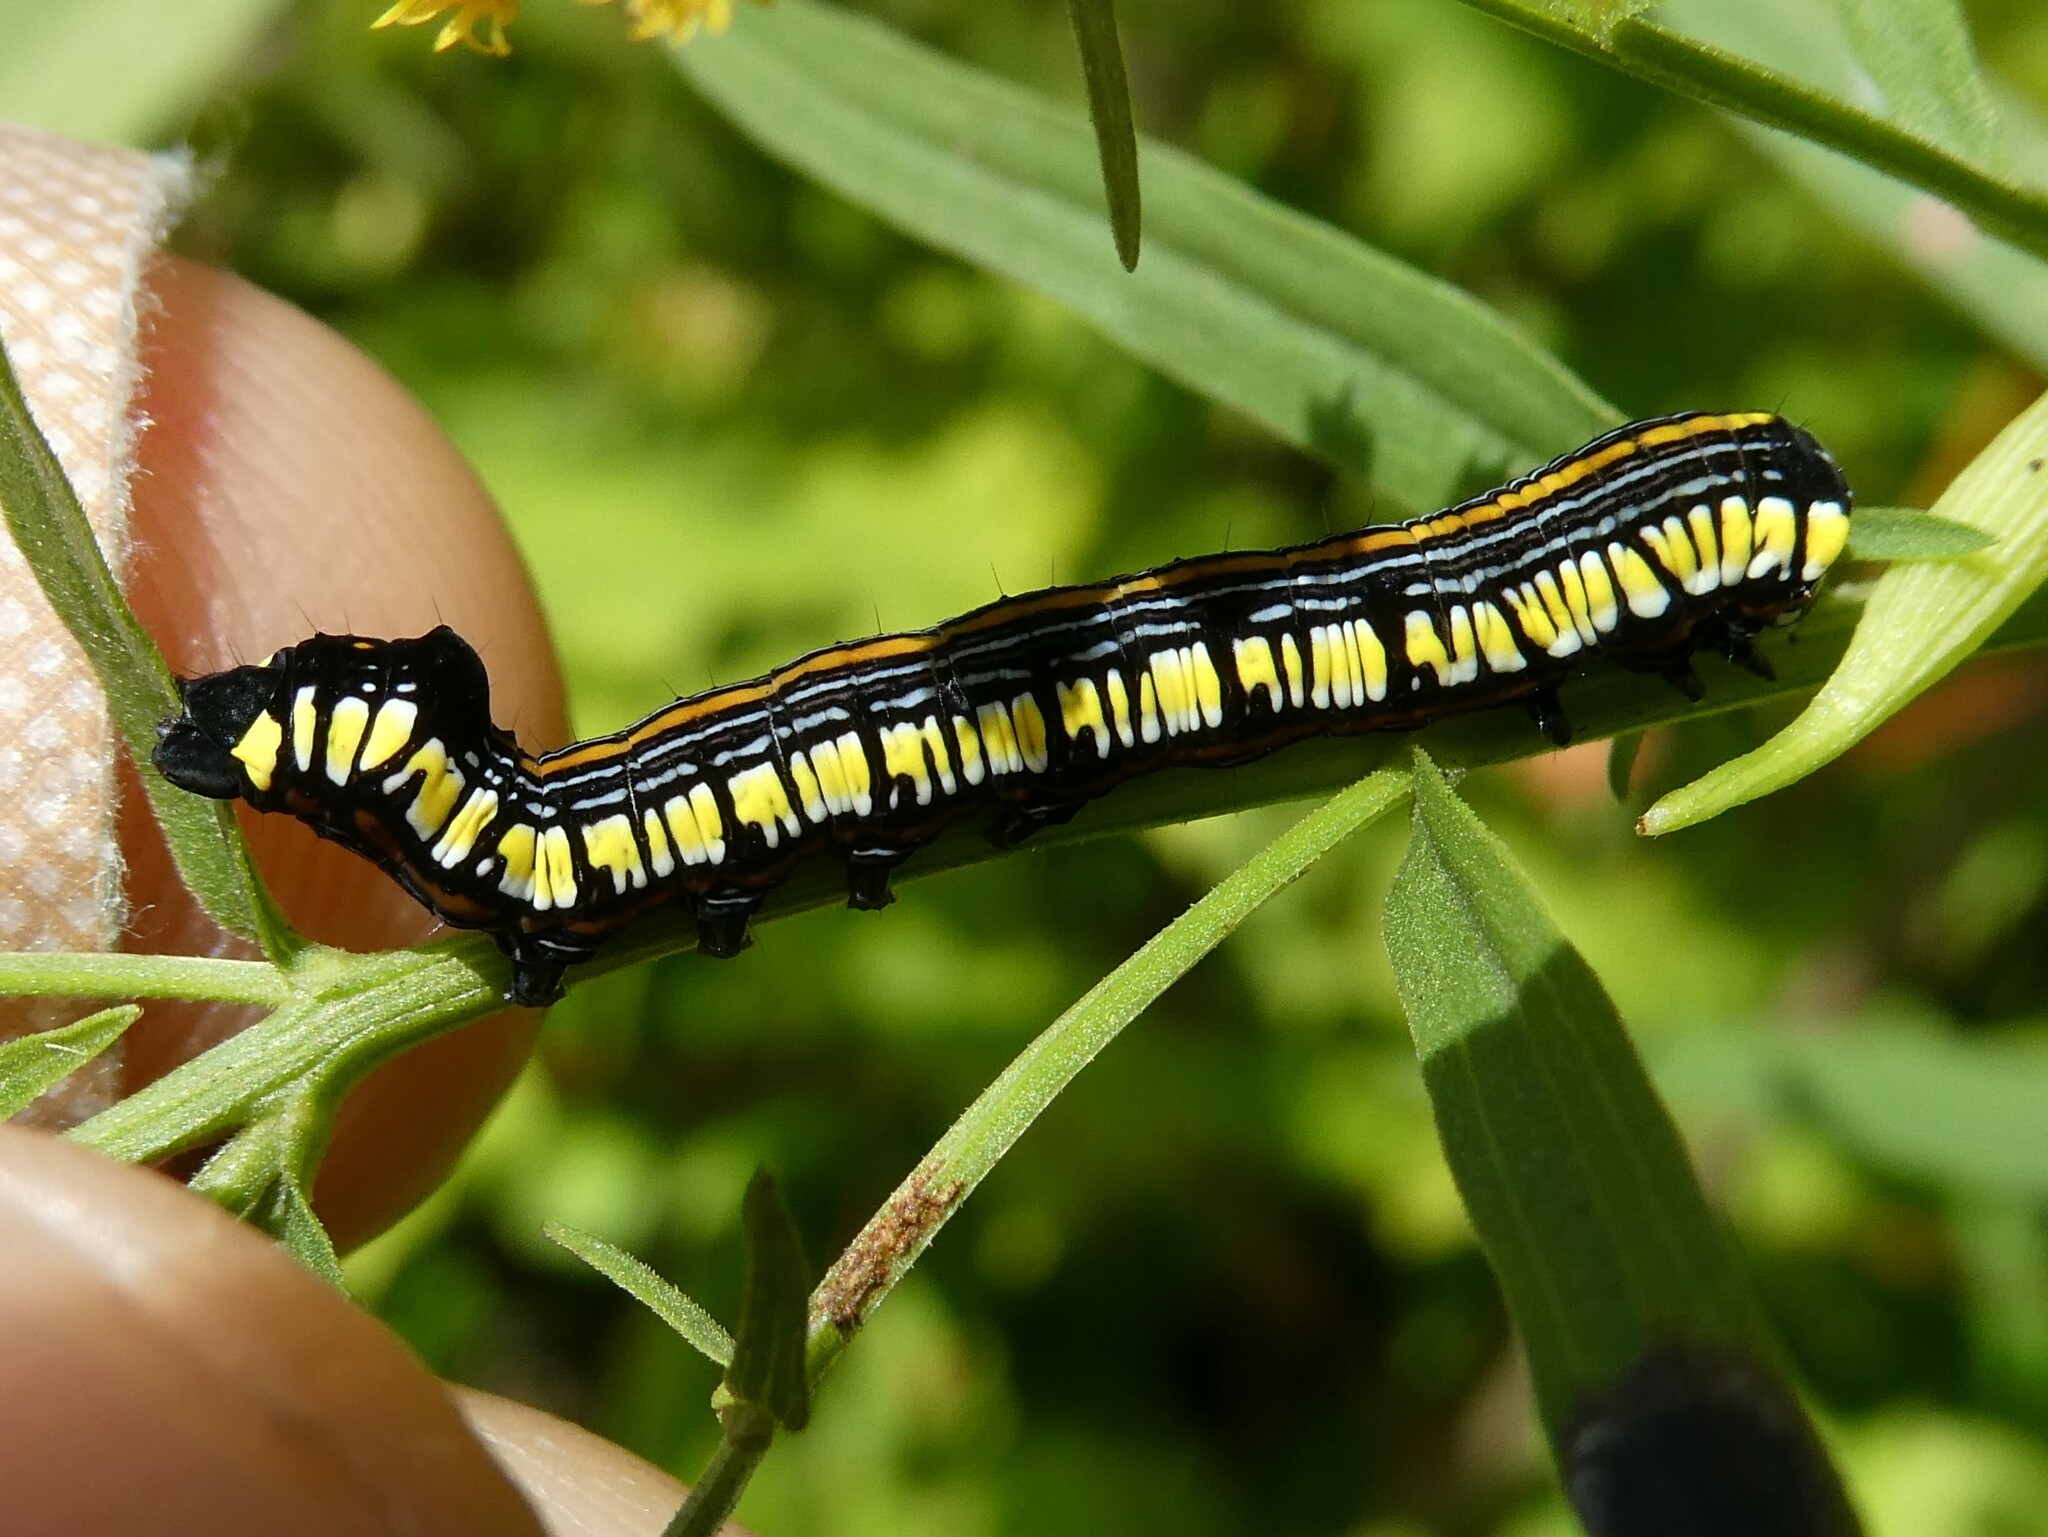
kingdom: Animalia
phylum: Arthropoda
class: Insecta
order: Lepidoptera
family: Noctuidae
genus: Cucullia
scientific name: Cucullia convexipennis
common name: Brown-hooded owlet
